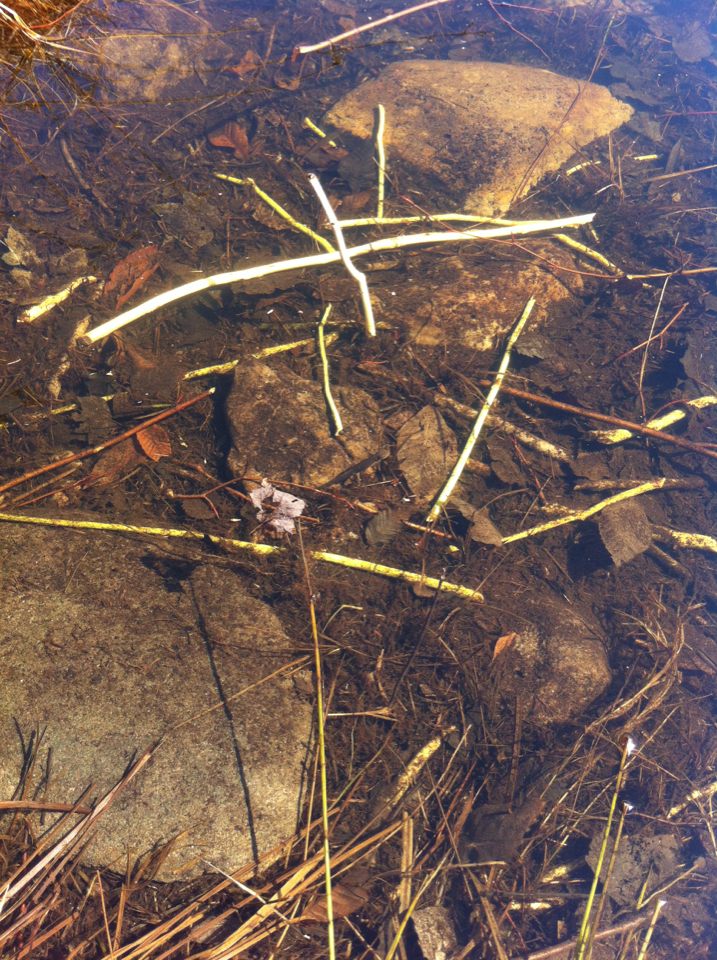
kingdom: Animalia
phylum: Chordata
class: Amphibia
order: Caudata
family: Salamandridae
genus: Notophthalmus
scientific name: Notophthalmus viridescens
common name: Eastern newt
